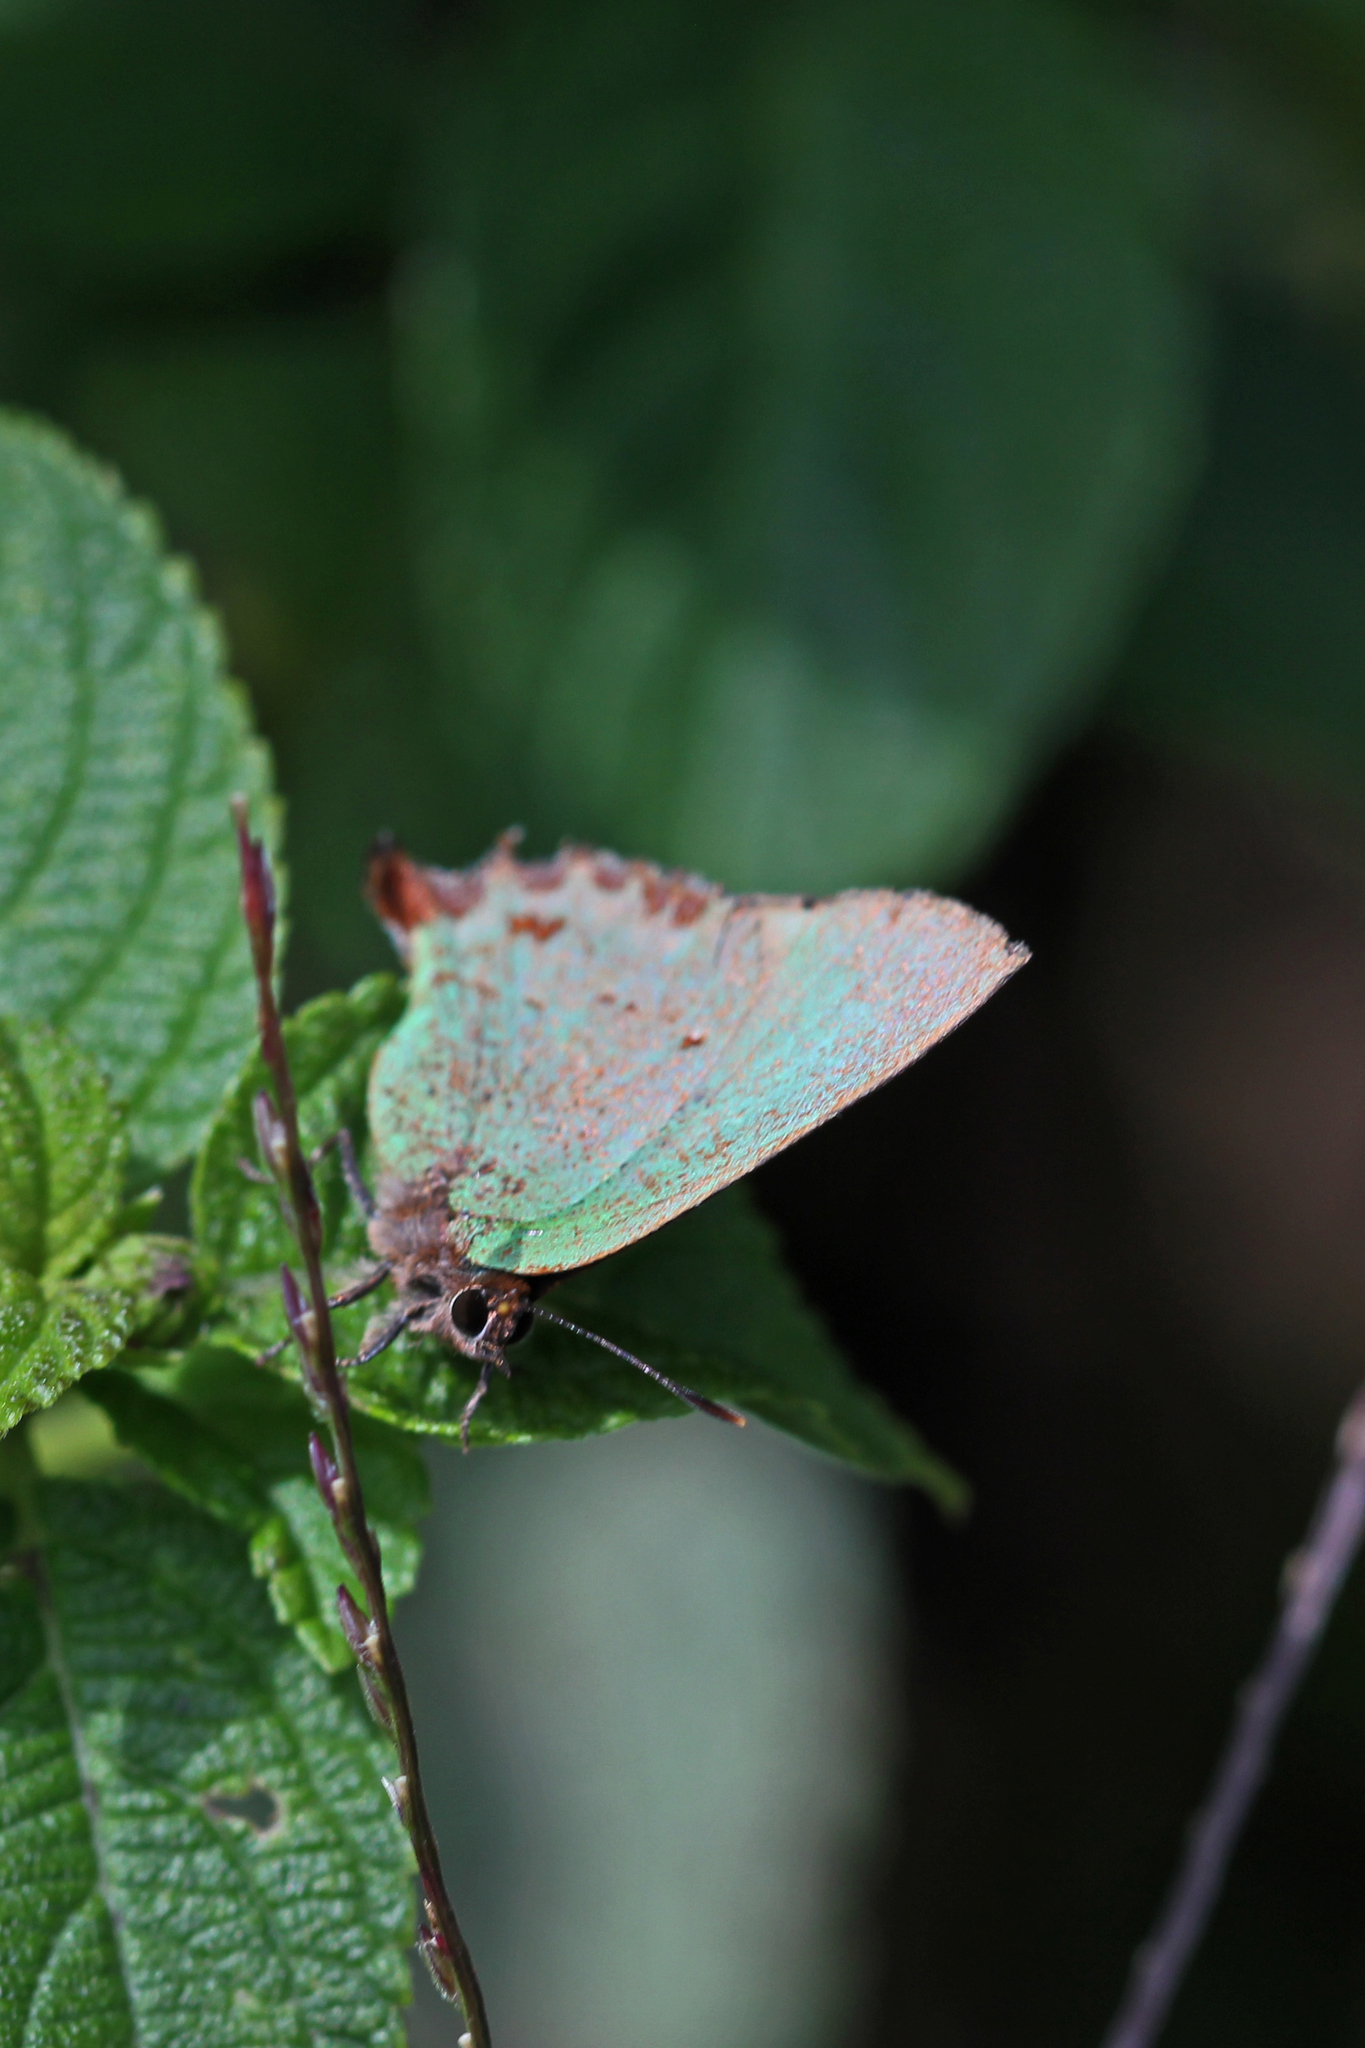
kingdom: Animalia
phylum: Arthropoda
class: Insecta
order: Lepidoptera
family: Lycaenidae
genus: Cyanophrys
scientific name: Cyanophrys longula
